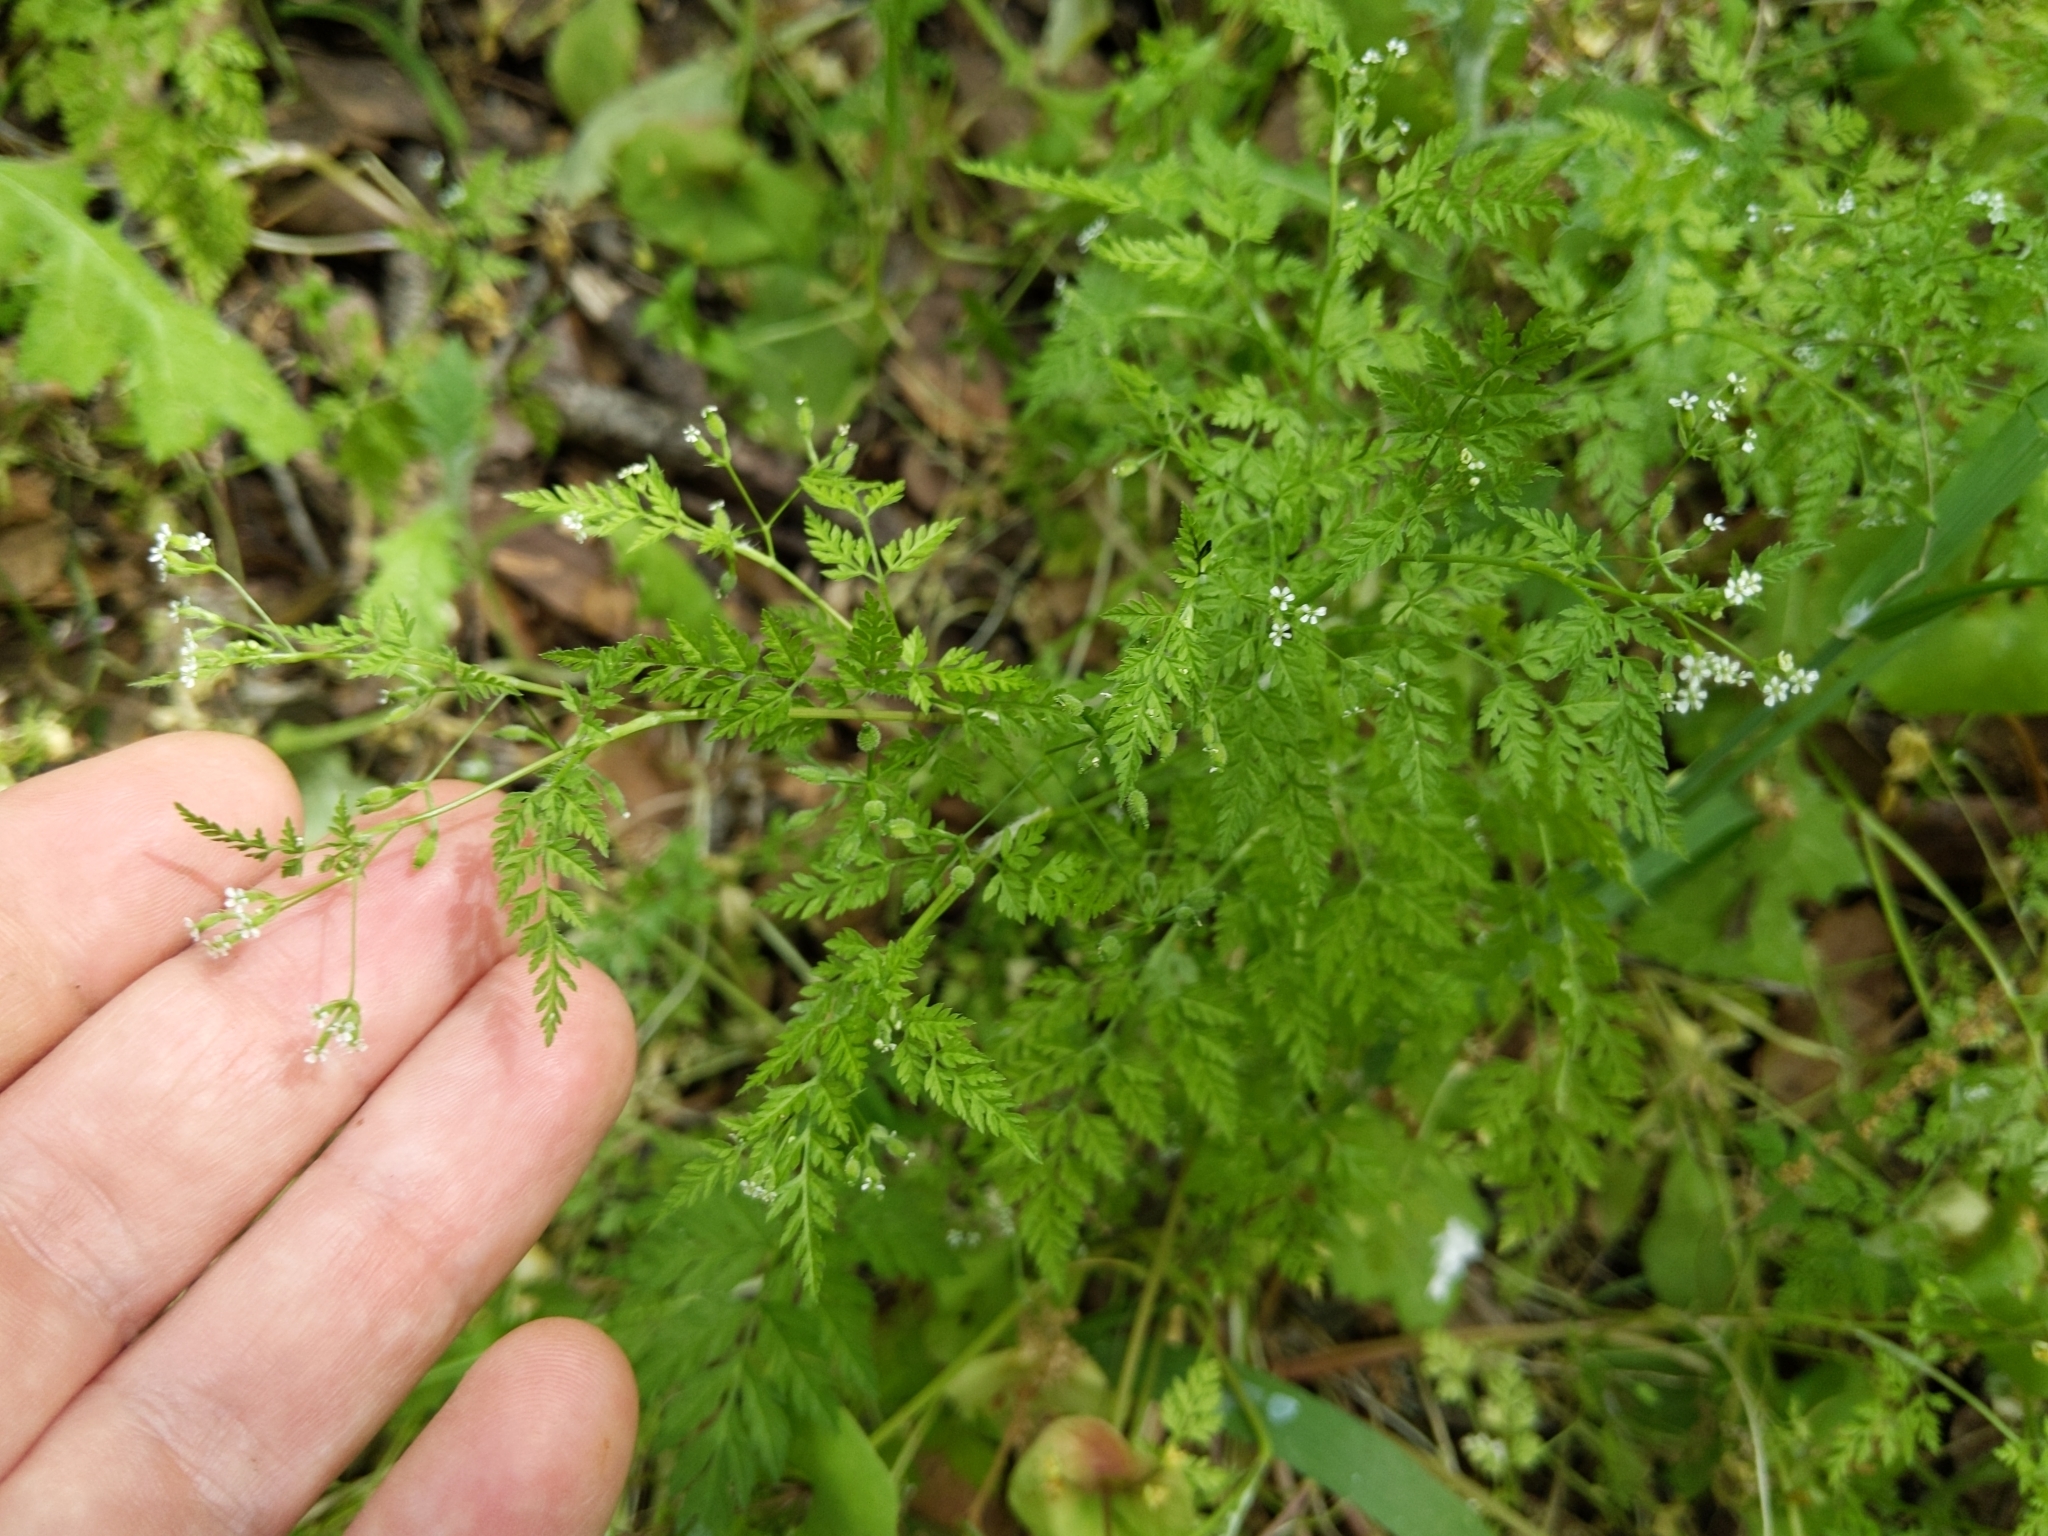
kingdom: Plantae
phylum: Tracheophyta
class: Magnoliopsida
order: Apiales
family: Apiaceae
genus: Anthriscus
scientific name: Anthriscus caucalis
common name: Bur chervil
